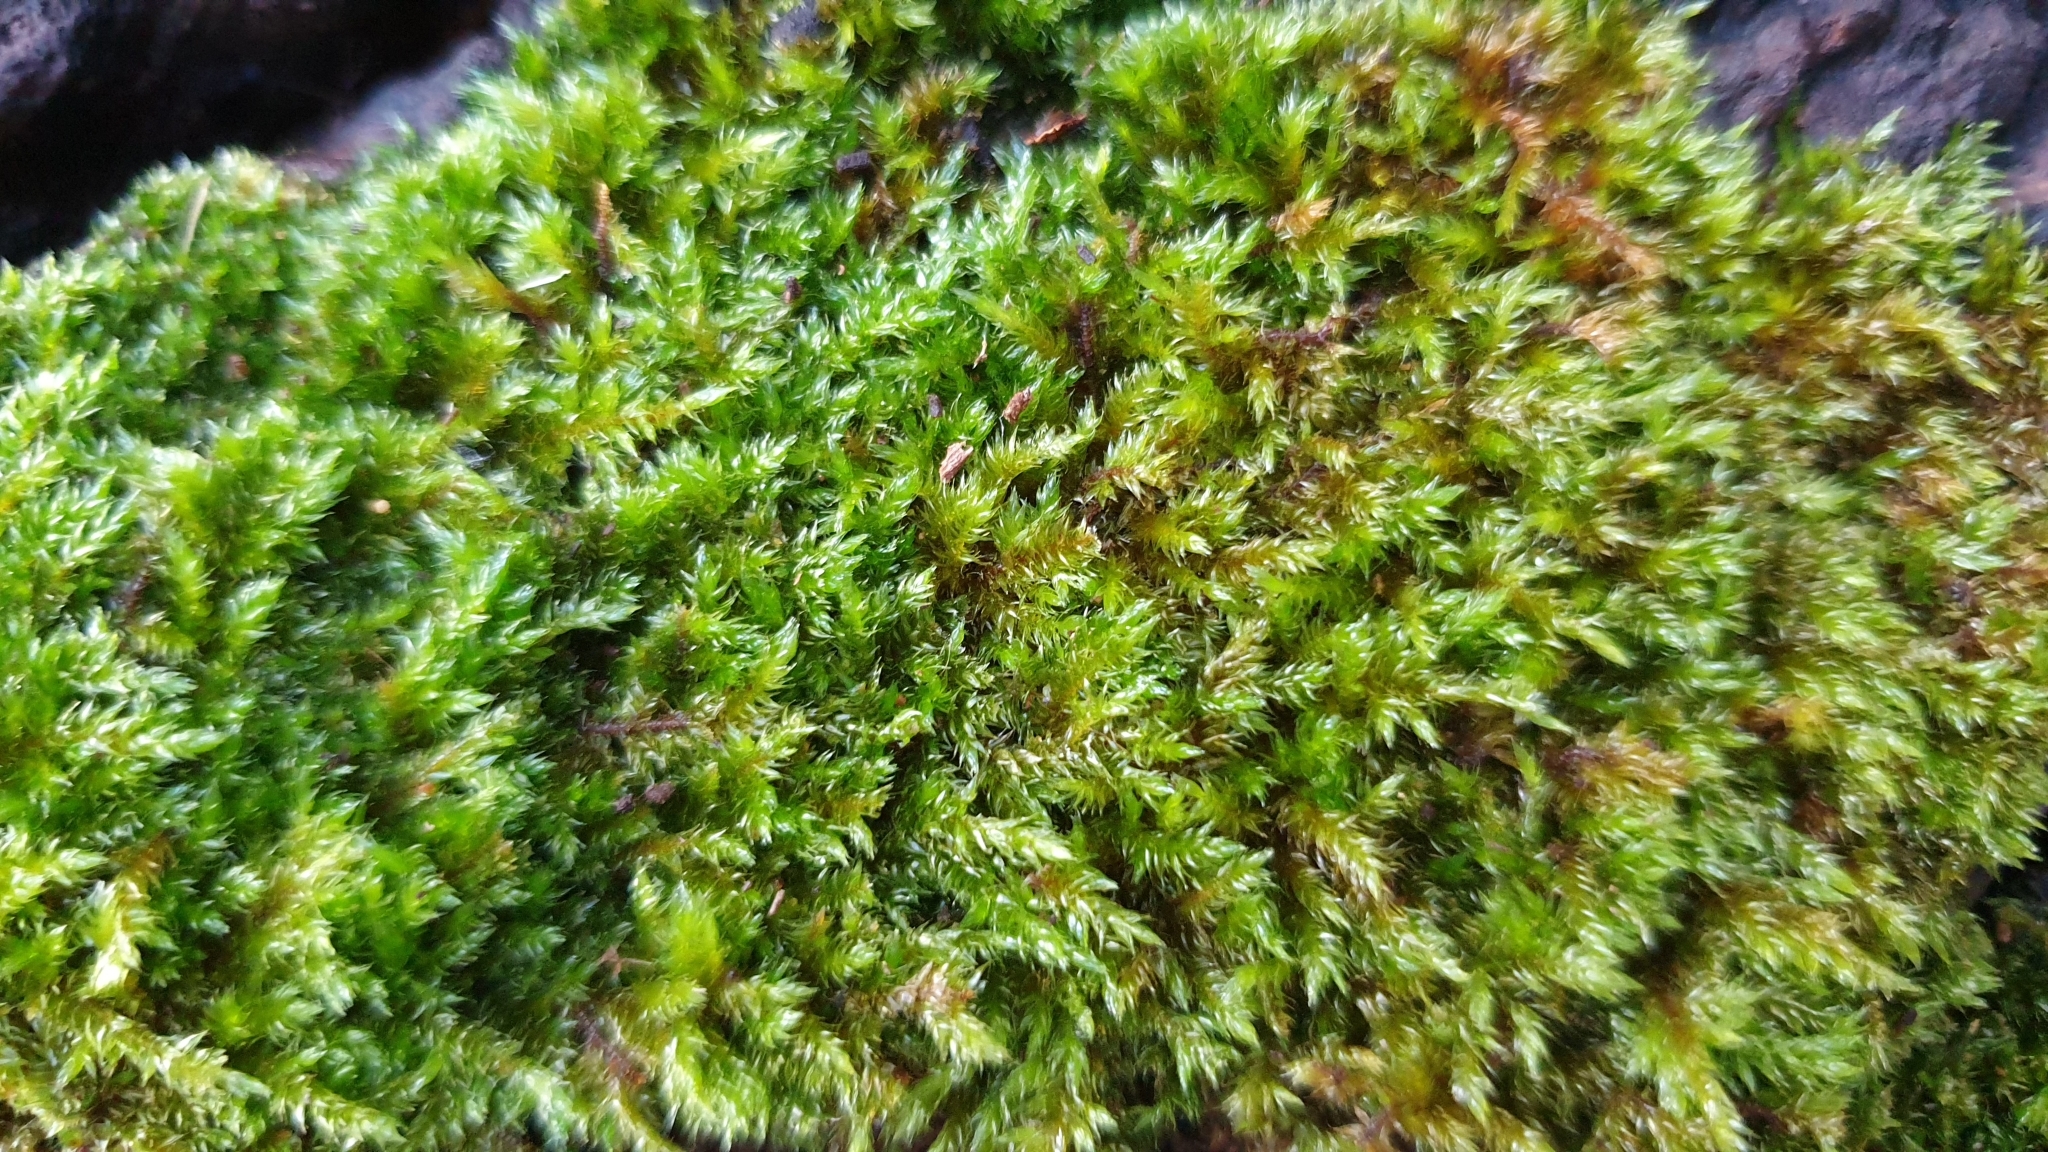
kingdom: Plantae
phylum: Bryophyta
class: Bryopsida
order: Hypnales
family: Sematophyllaceae
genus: Sematophyllum
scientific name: Sematophyllum homomallum
